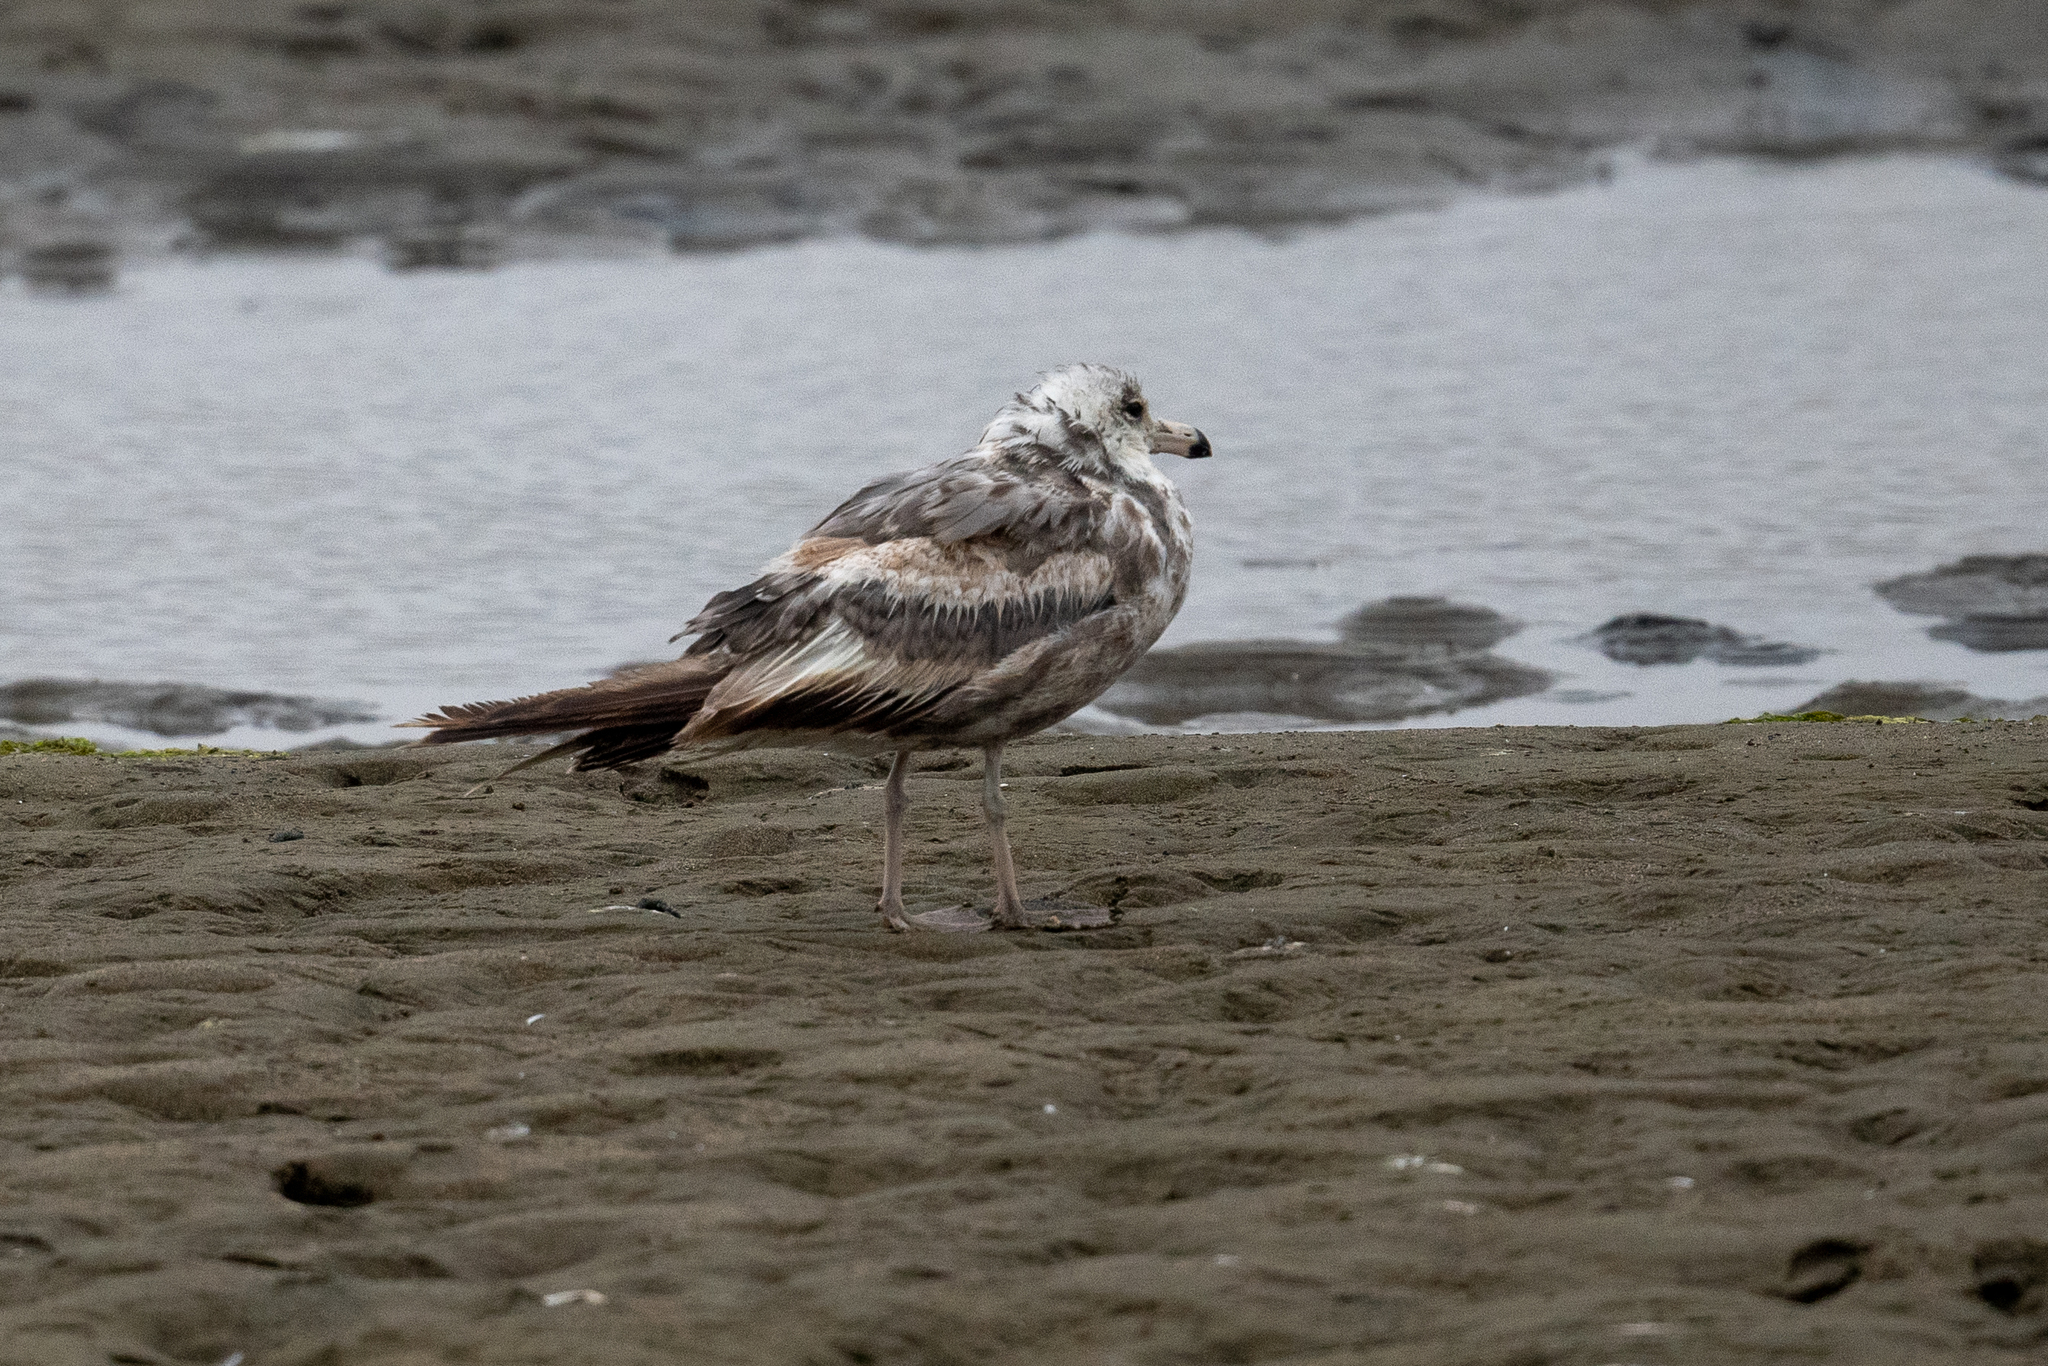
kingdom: Animalia
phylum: Chordata
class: Aves
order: Charadriiformes
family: Laridae
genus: Larus
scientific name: Larus californicus
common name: California gull
